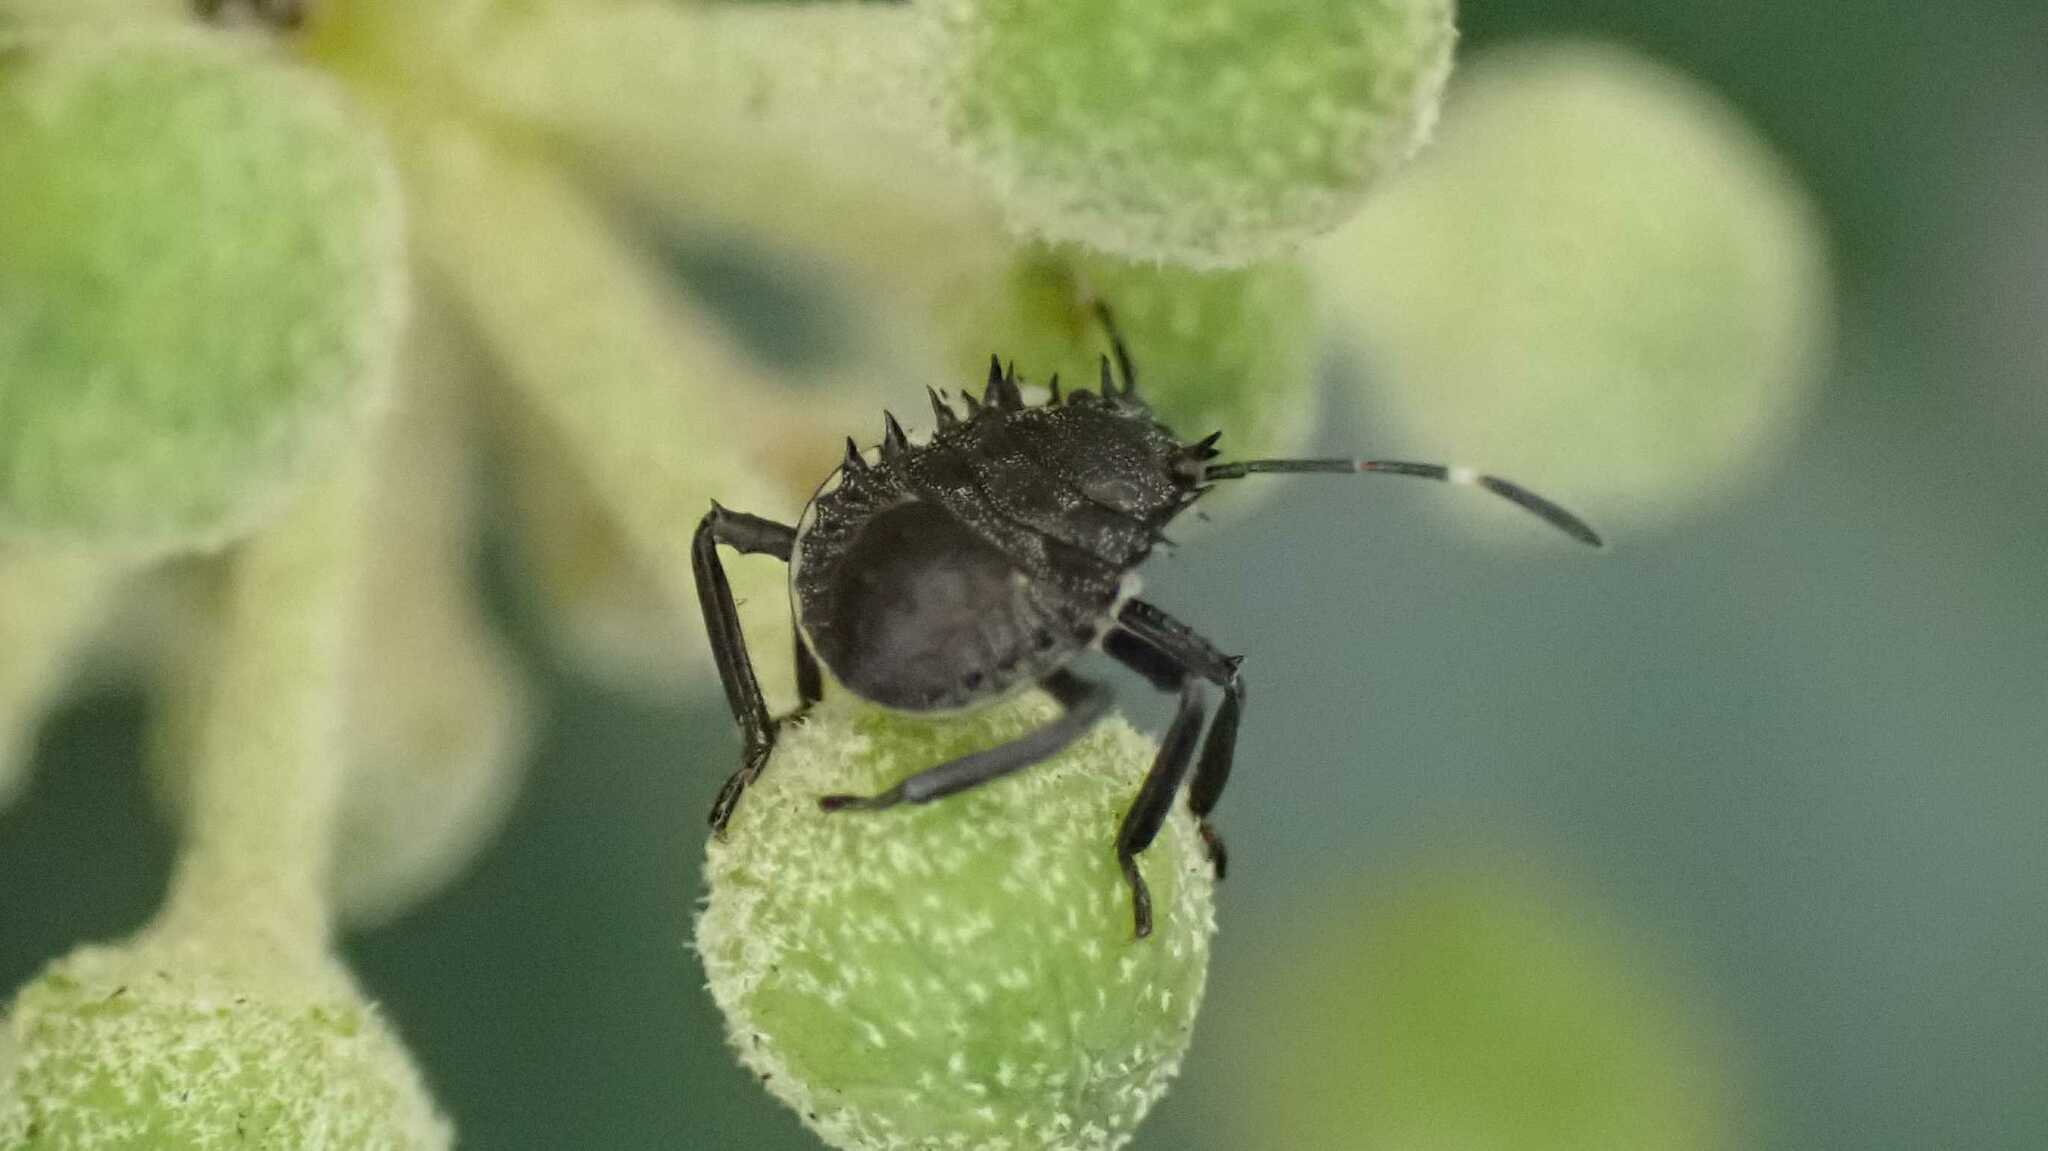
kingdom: Animalia
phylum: Arthropoda
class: Insecta
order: Hemiptera
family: Pentatomidae
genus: Halyomorpha
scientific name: Halyomorpha halys
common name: Brown marmorated stink bug
